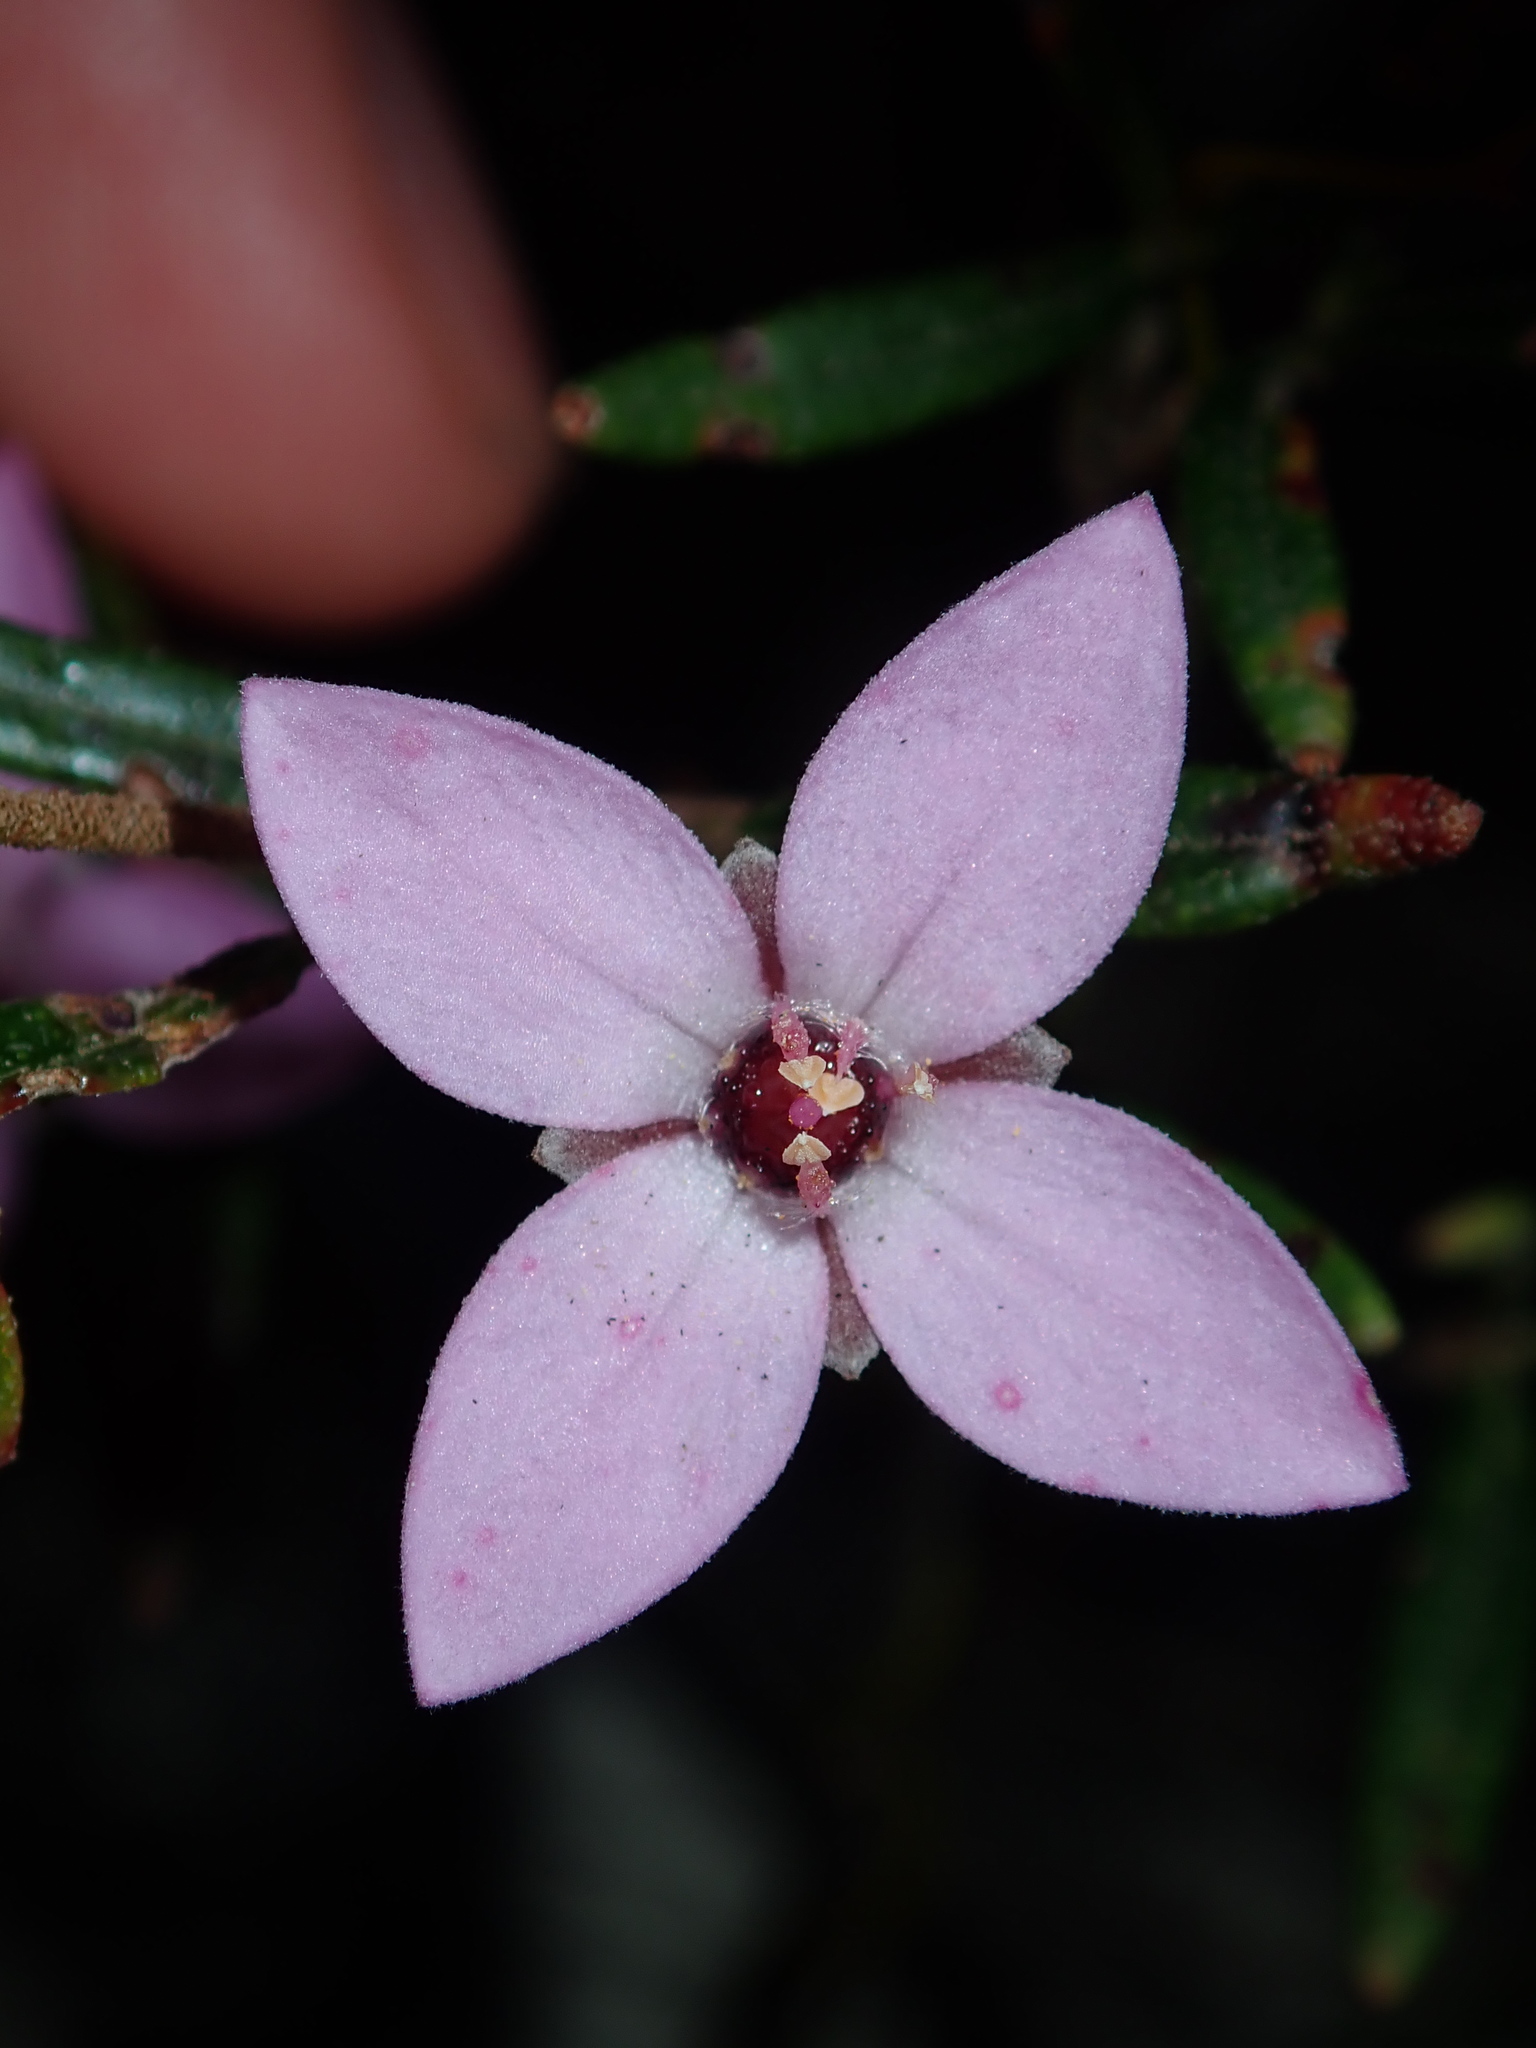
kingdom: Plantae
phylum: Tracheophyta
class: Magnoliopsida
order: Sapindales
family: Rutaceae
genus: Boronia
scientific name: Boronia ledifolia
